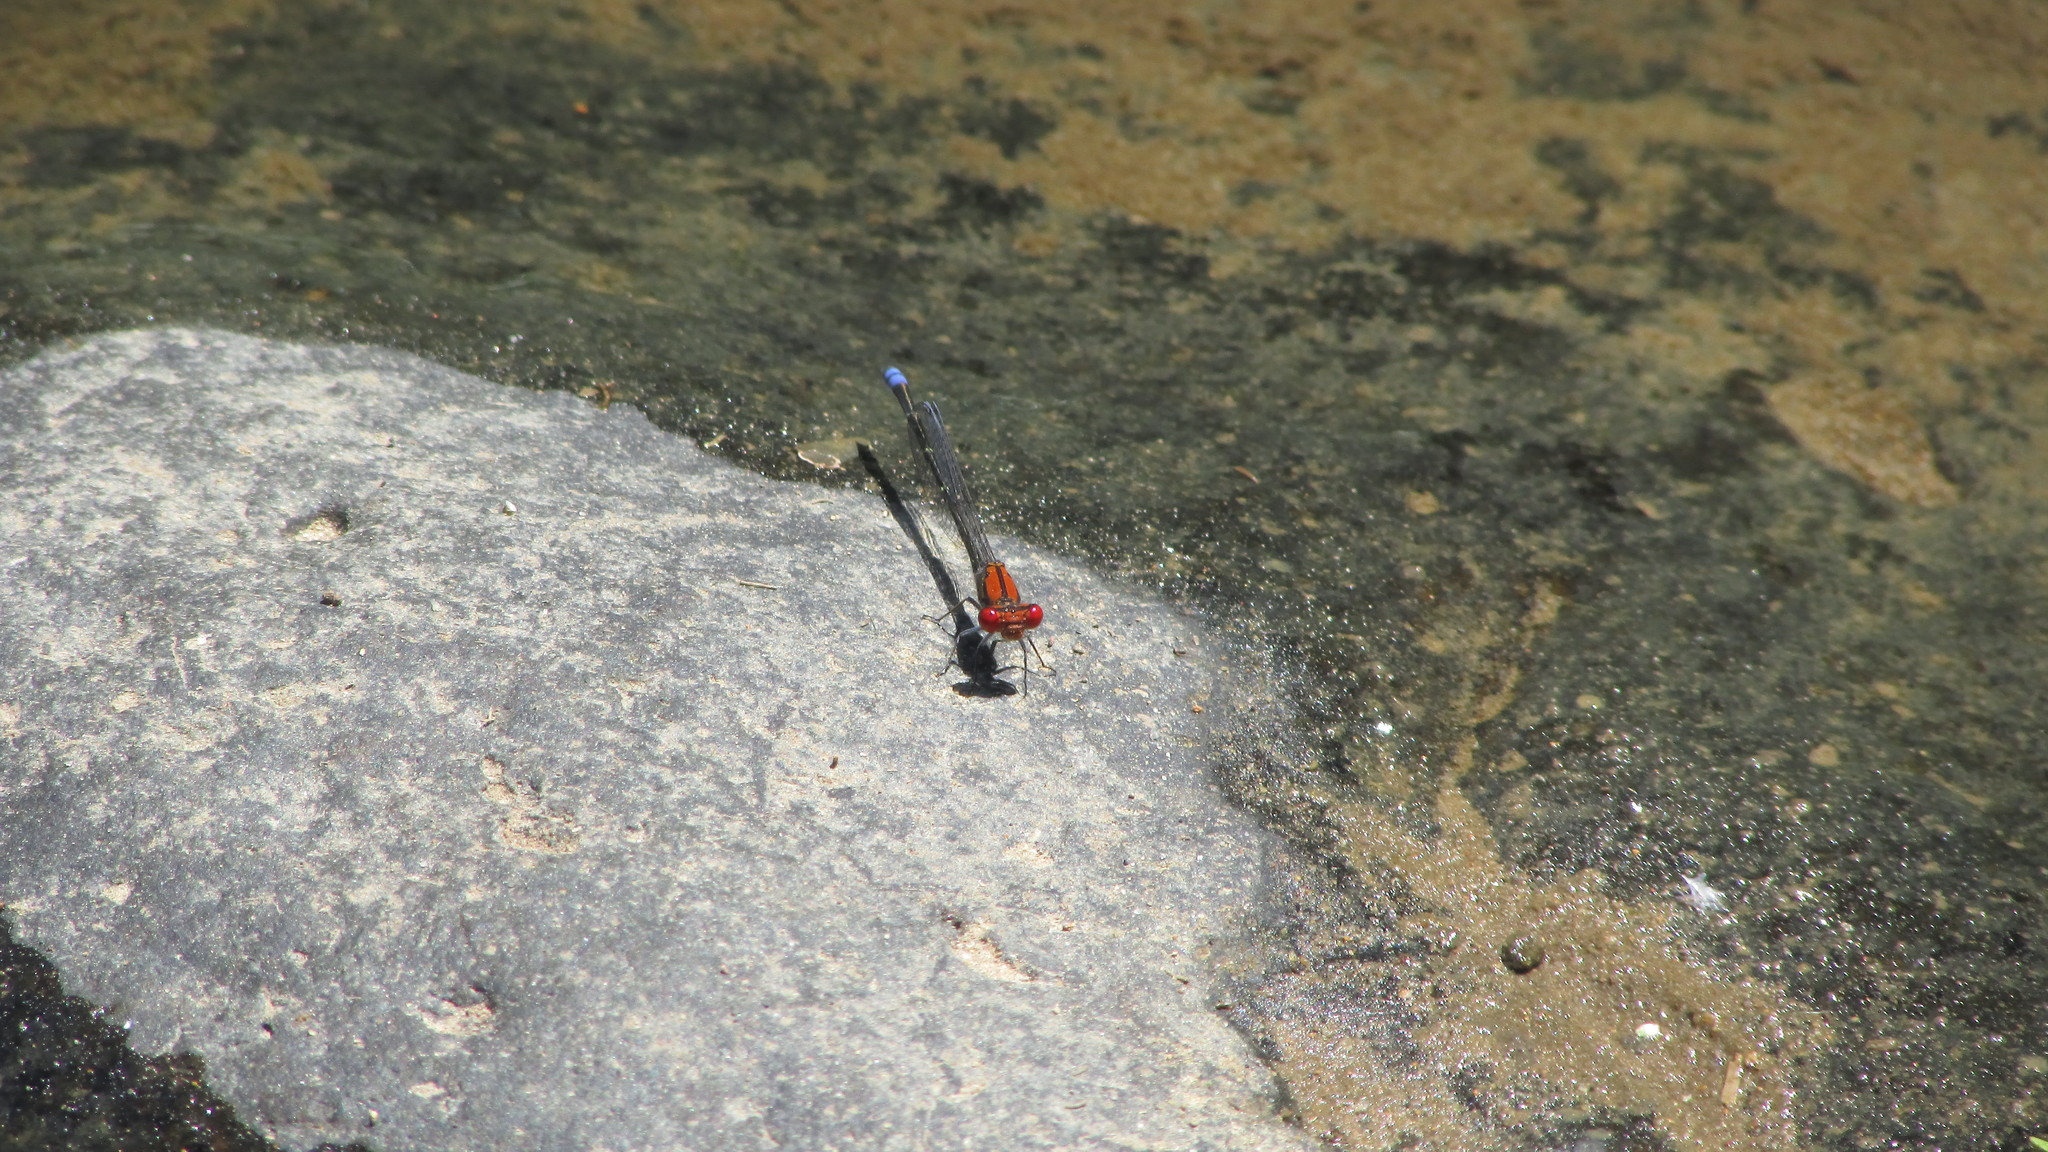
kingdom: Animalia
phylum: Arthropoda
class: Insecta
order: Odonata
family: Coenagrionidae
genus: Pseudagrion
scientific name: Pseudagrion massaicum
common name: Masai sprite
